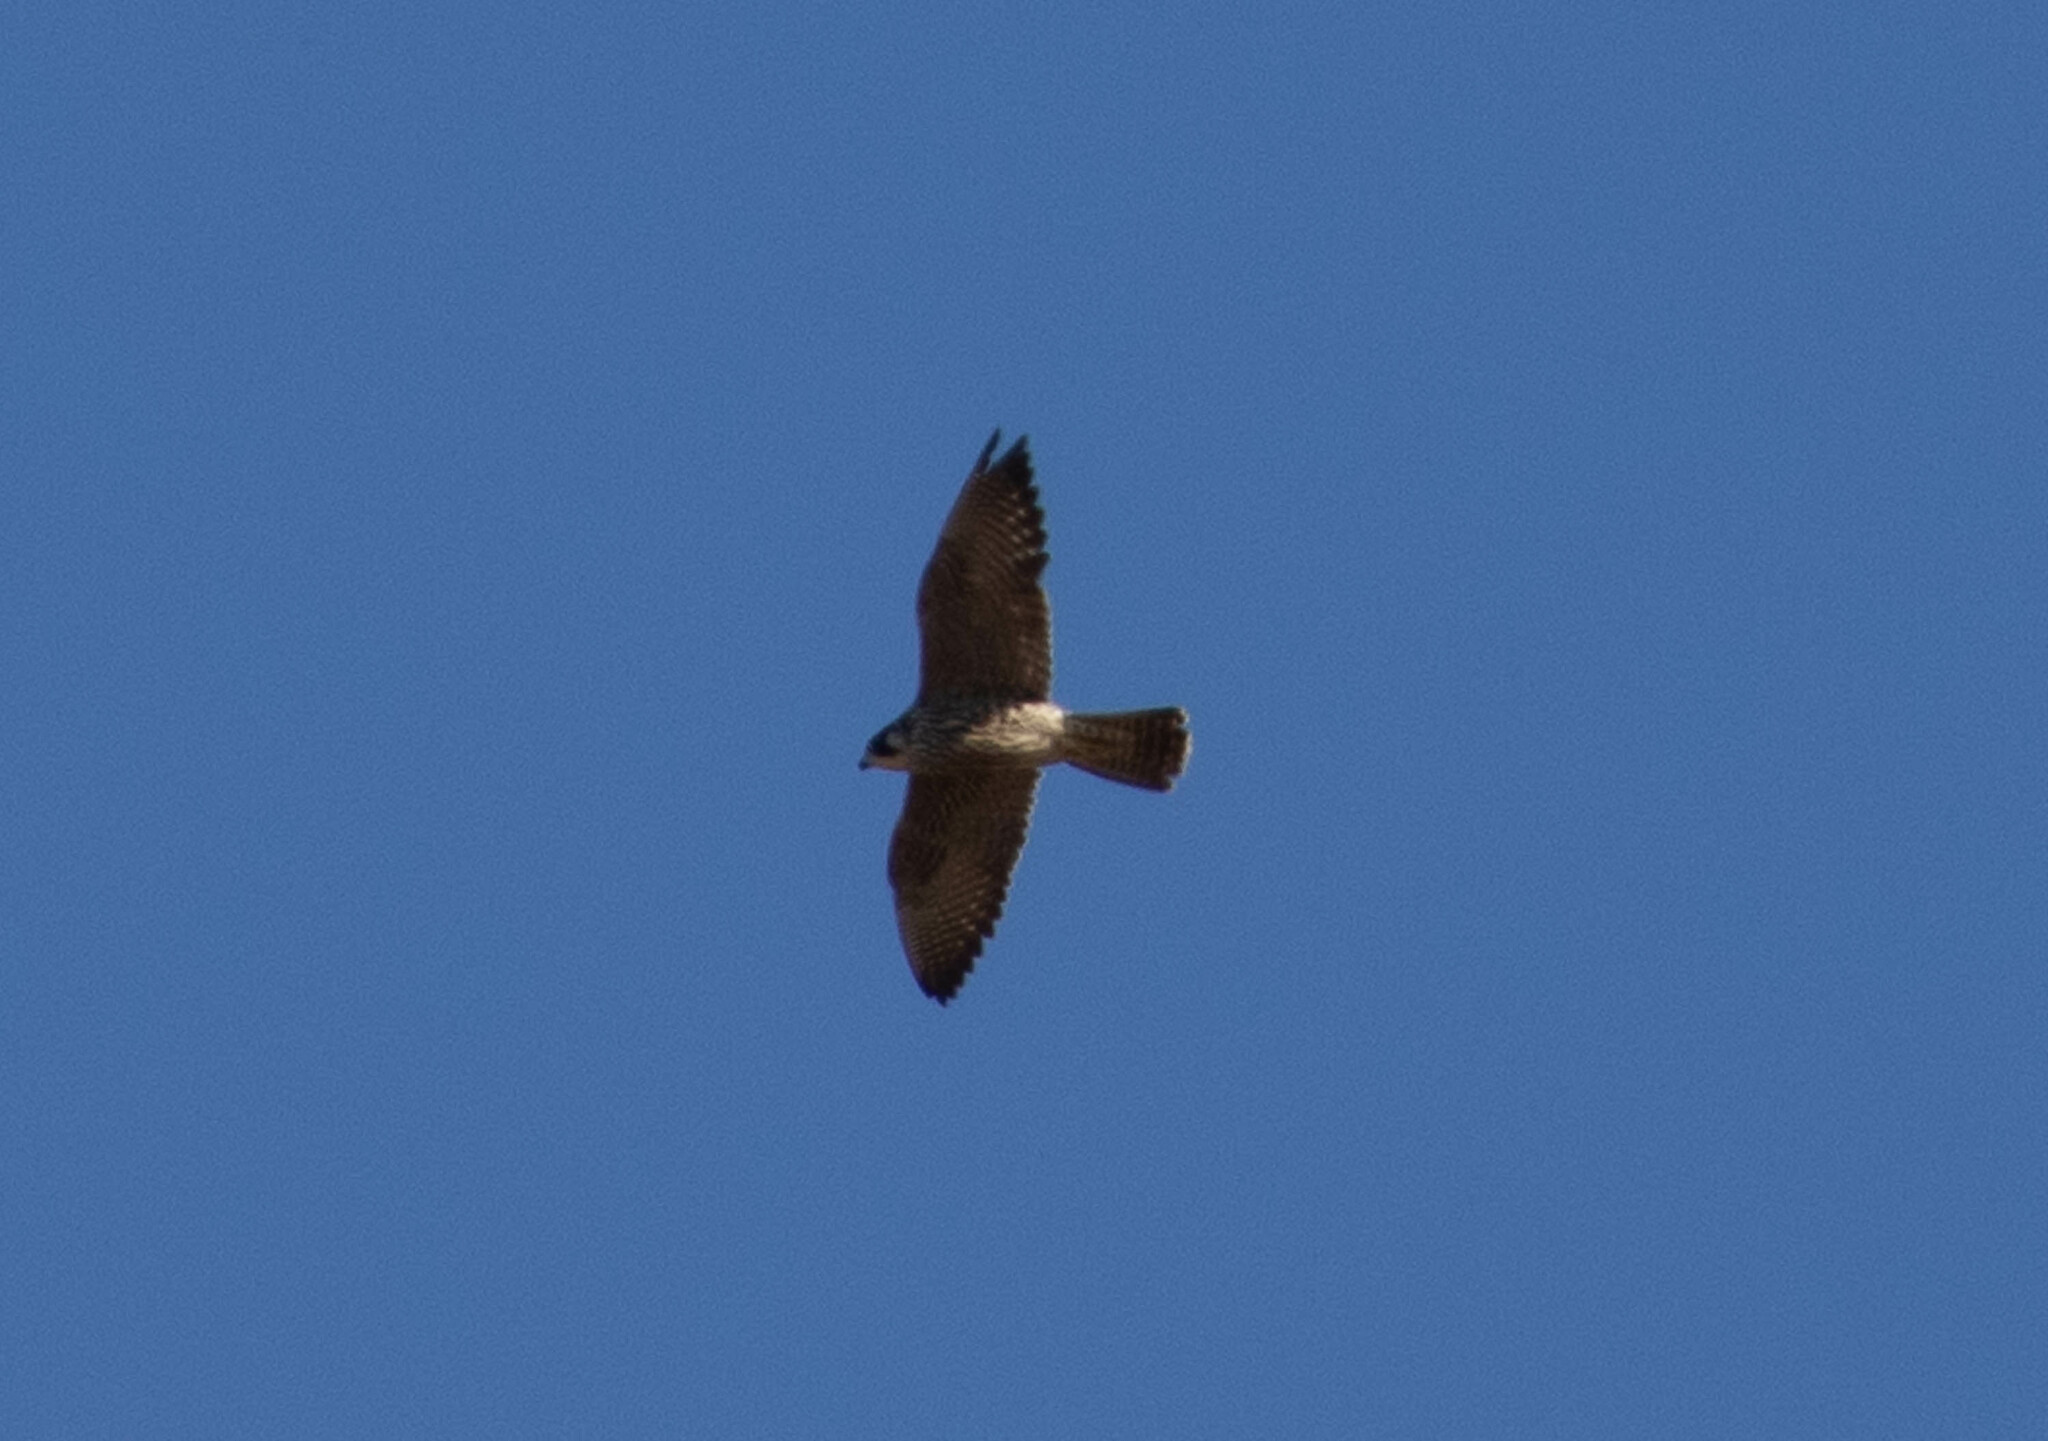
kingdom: Animalia
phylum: Chordata
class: Aves
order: Falconiformes
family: Falconidae
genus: Falco
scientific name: Falco peregrinus
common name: Peregrine falcon
